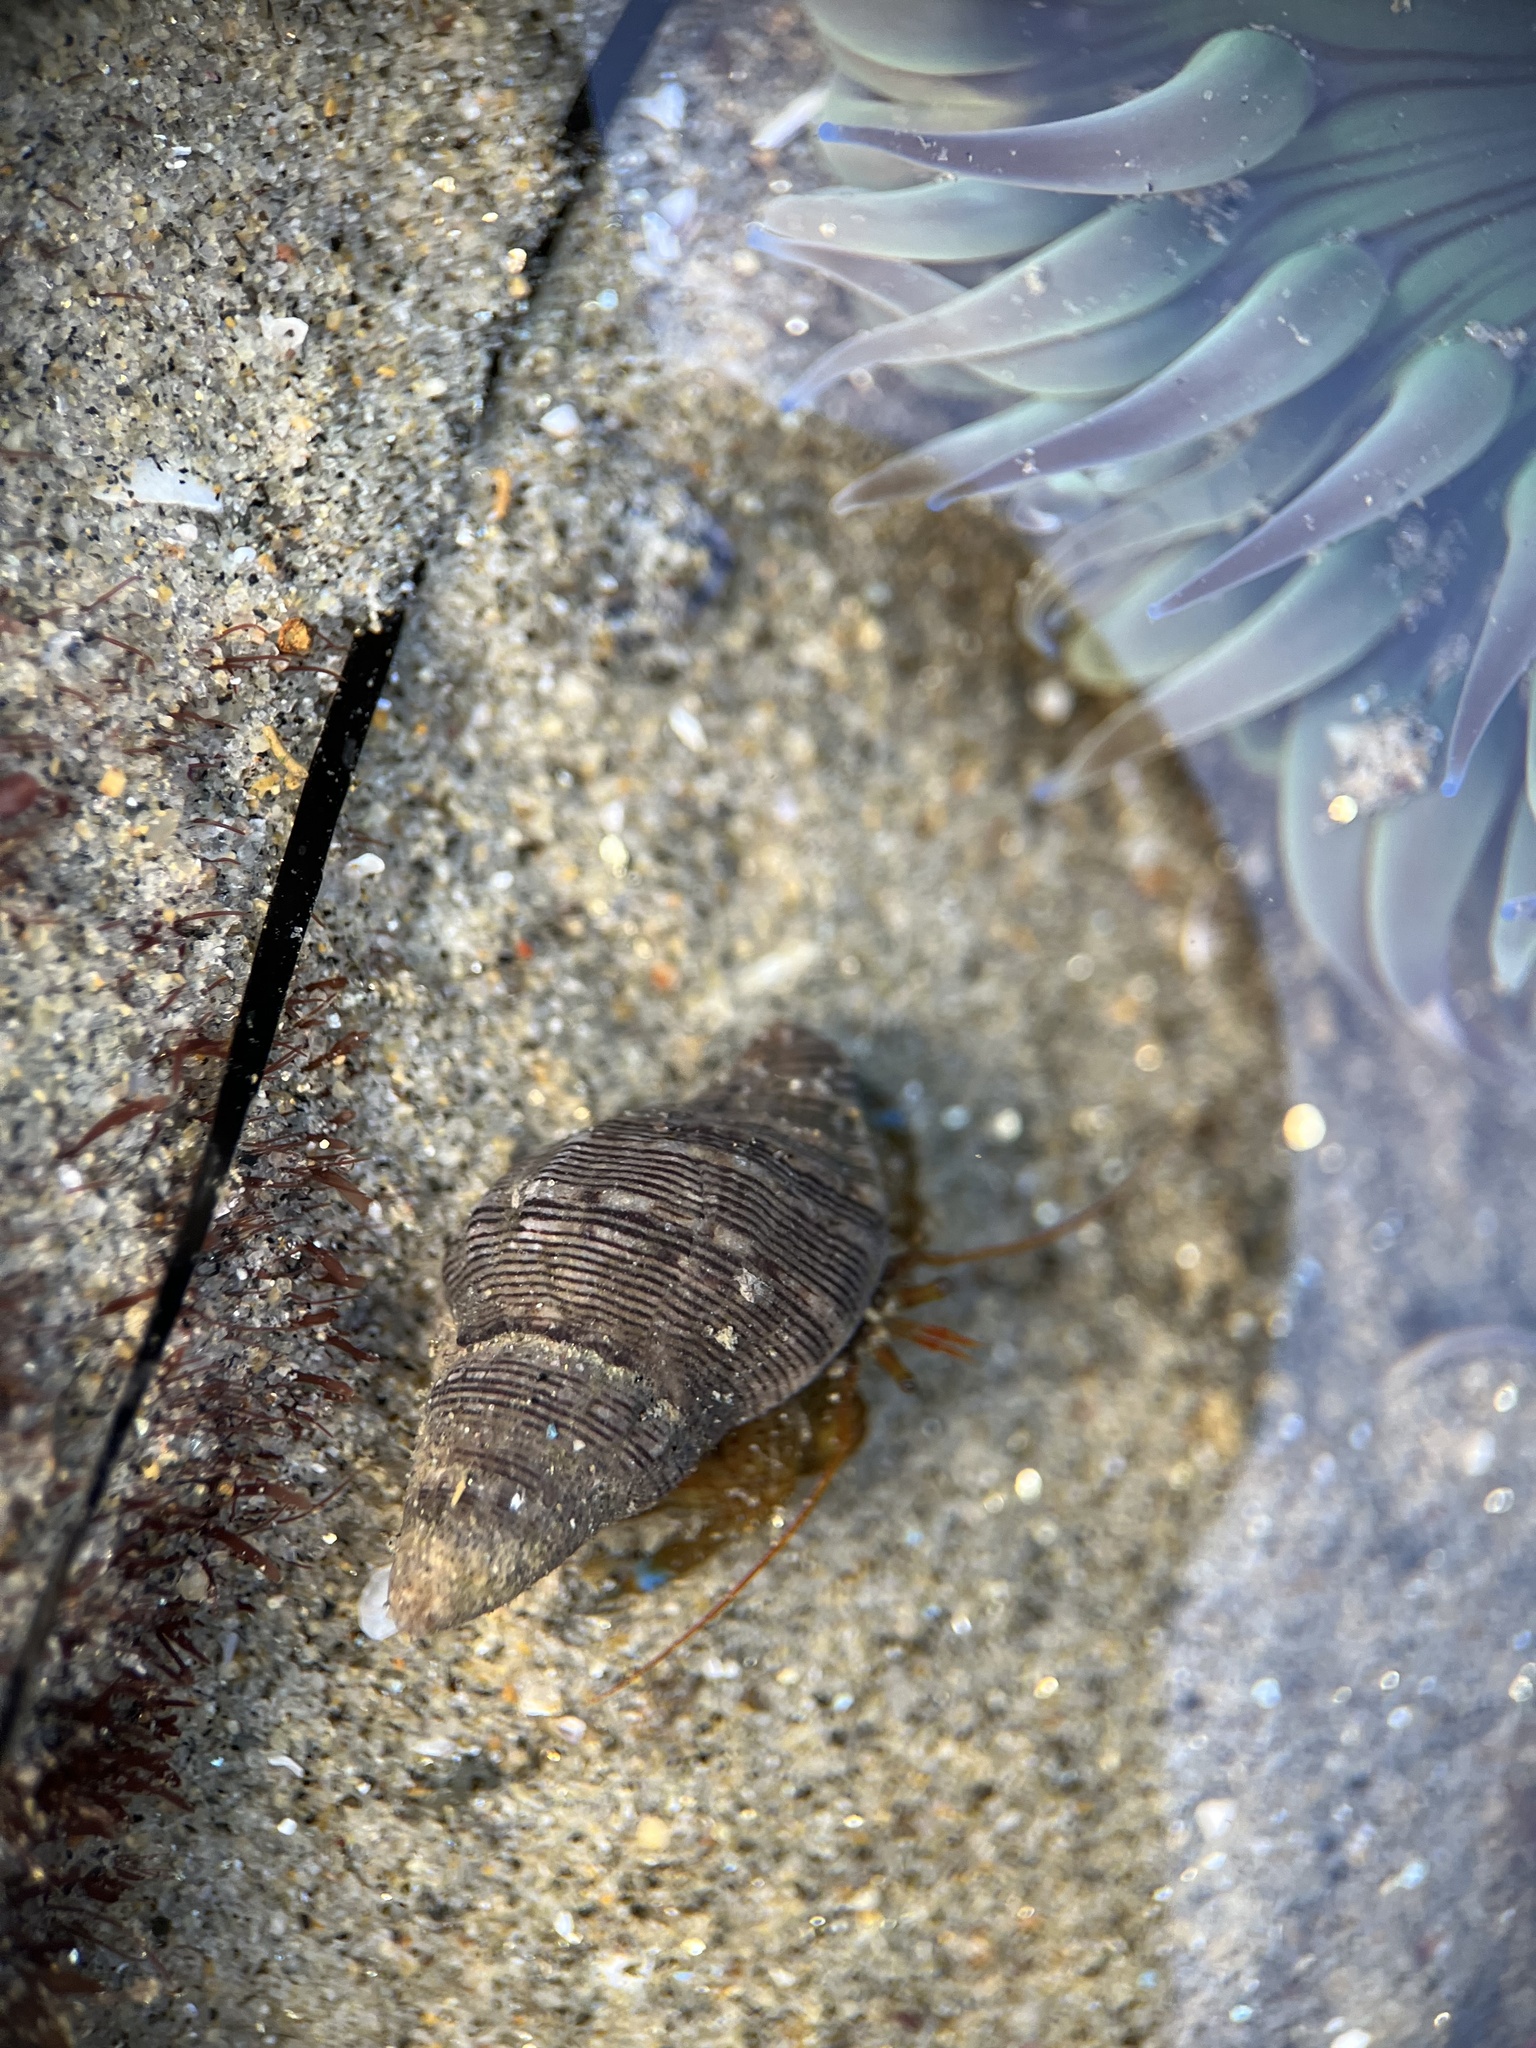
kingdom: Animalia
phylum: Arthropoda
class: Malacostraca
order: Decapoda
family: Paguridae
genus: Pagurus
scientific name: Pagurus samuelis
